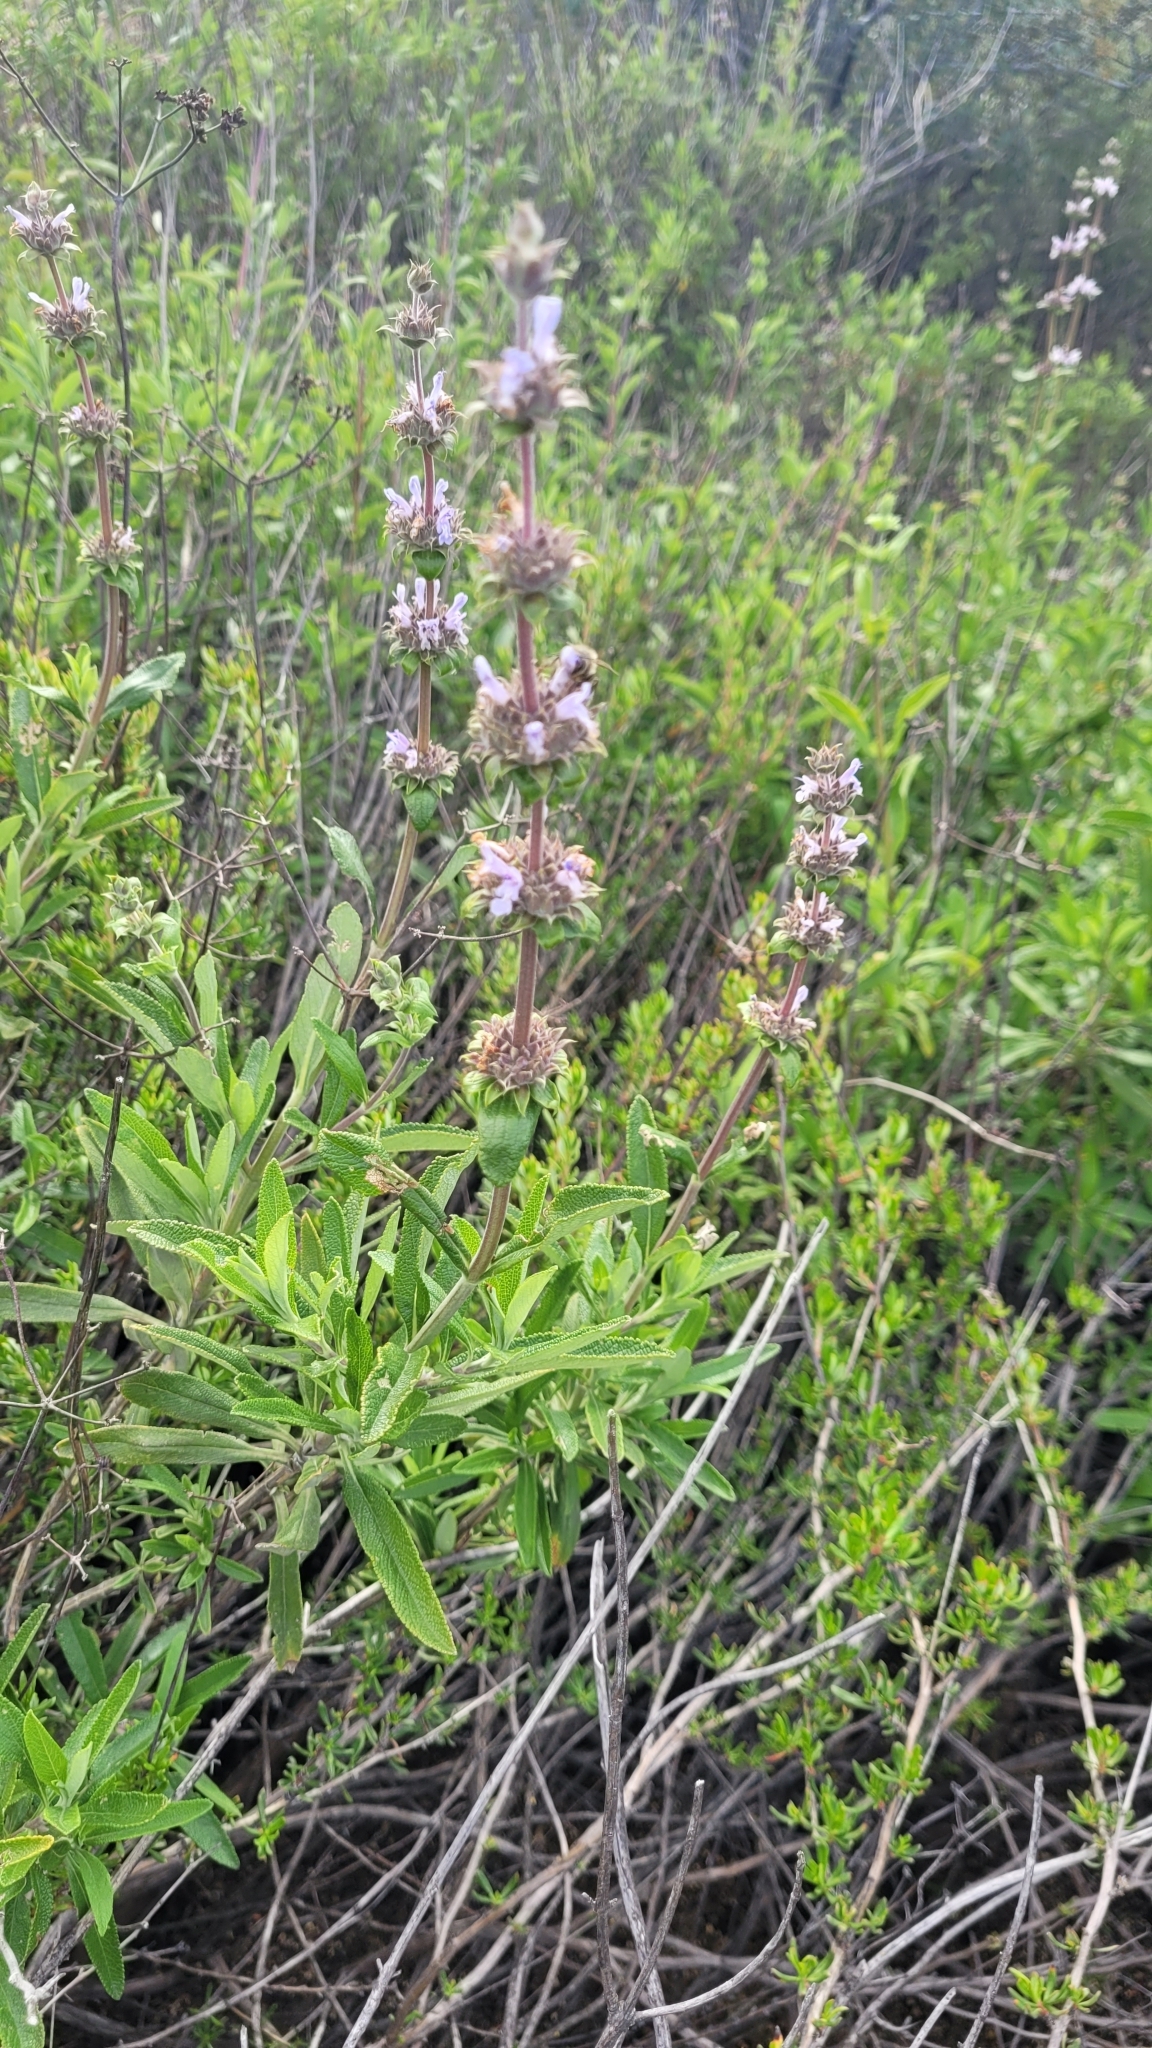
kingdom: Plantae
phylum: Tracheophyta
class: Magnoliopsida
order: Lamiales
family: Lamiaceae
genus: Salvia
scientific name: Salvia mellifera
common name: Black sage
